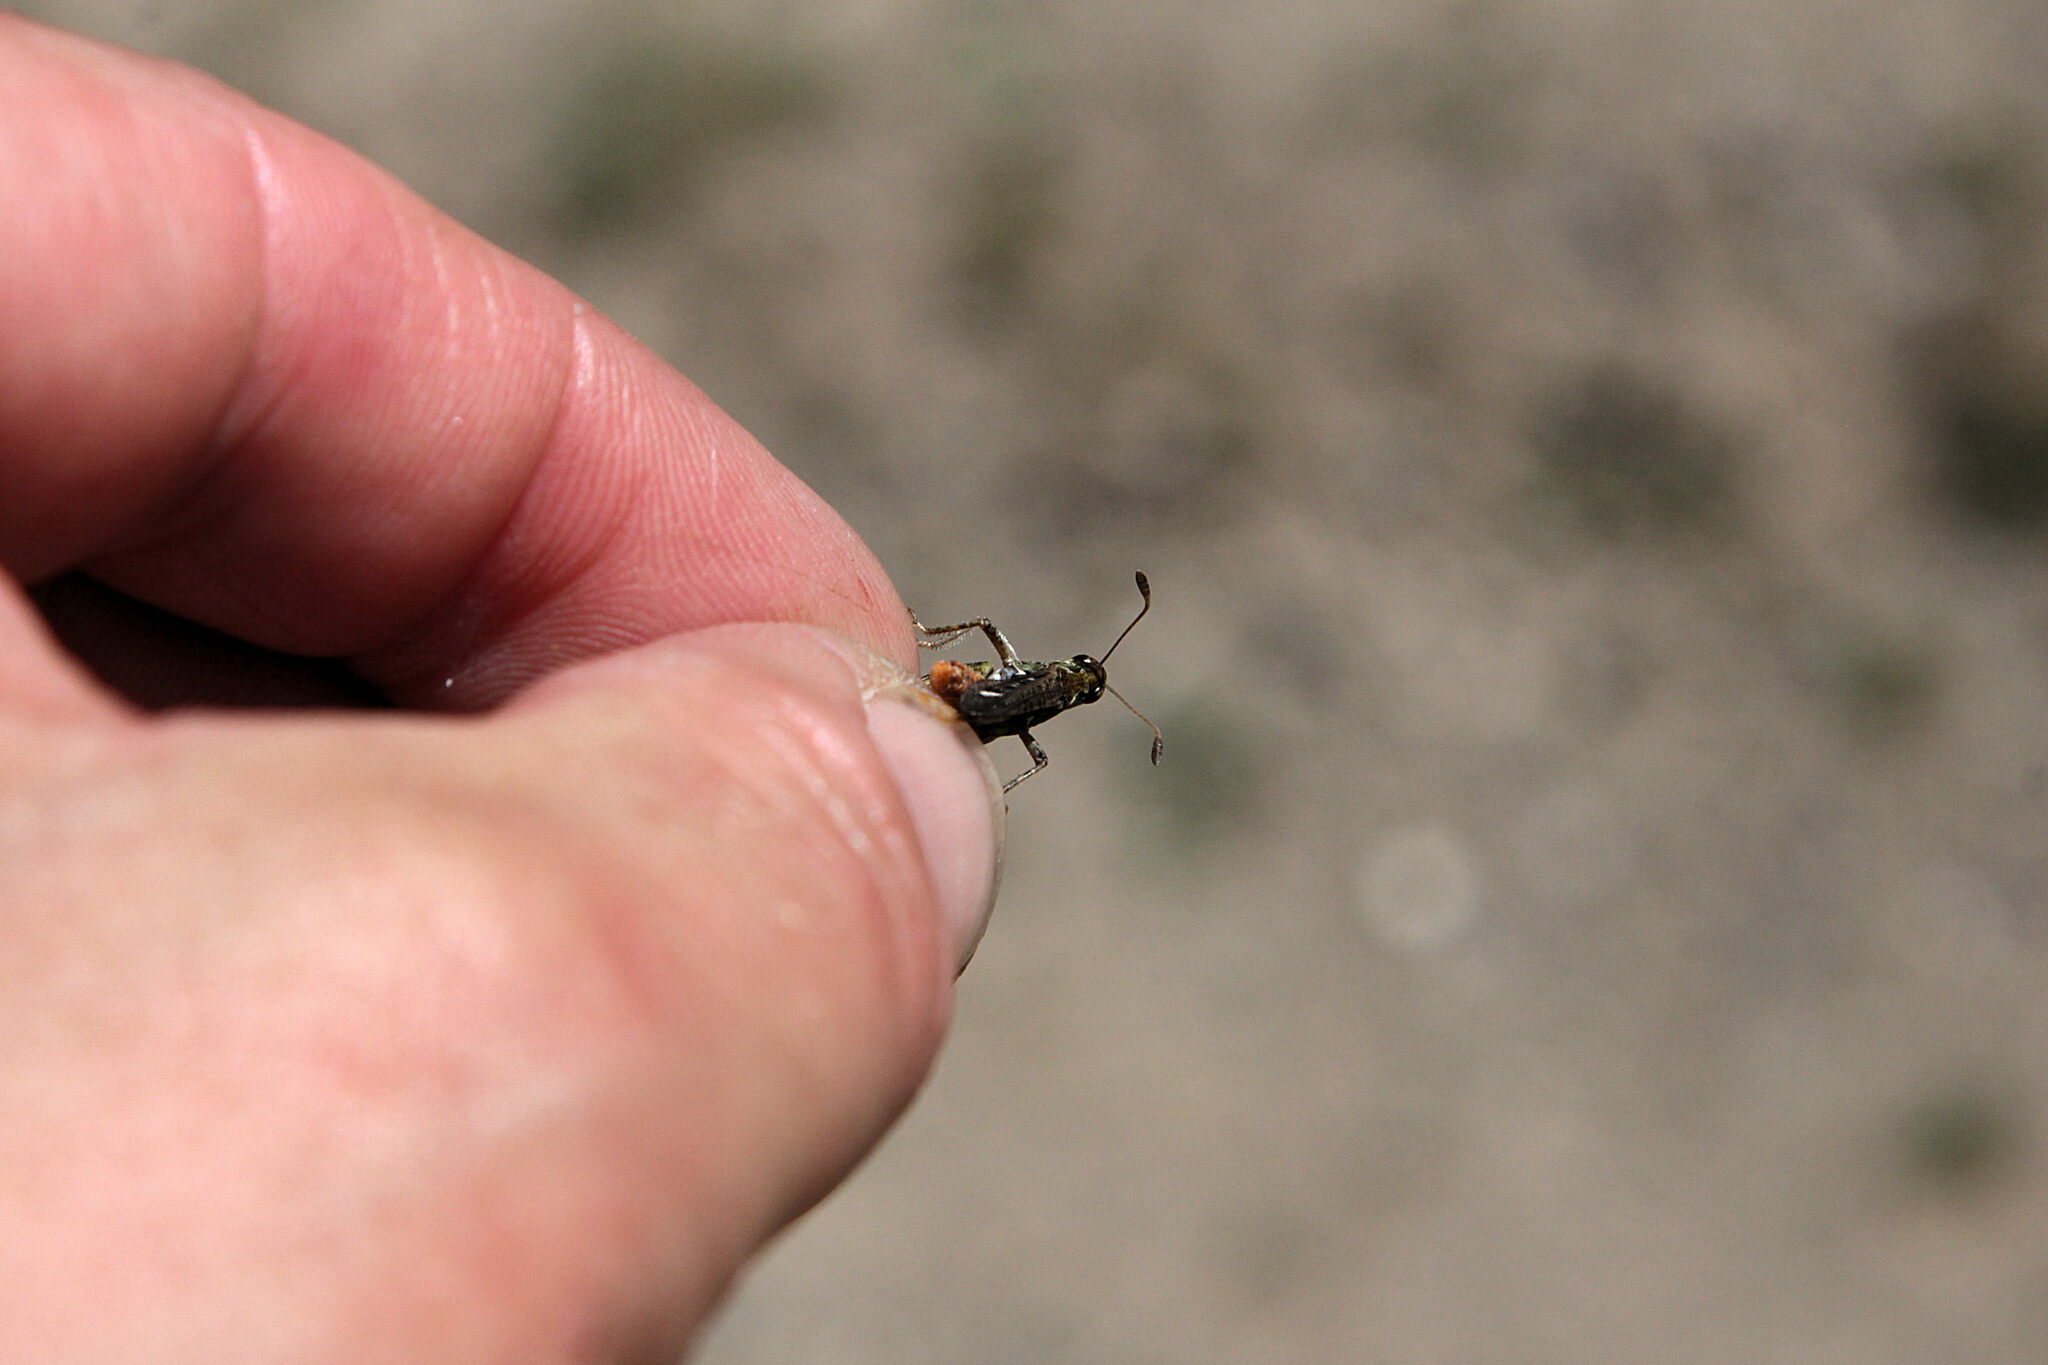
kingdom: Animalia
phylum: Arthropoda
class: Insecta
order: Orthoptera
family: Acrididae
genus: Myrmeleotettix
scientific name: Myrmeleotettix maculatus
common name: Mottled grasshopper
